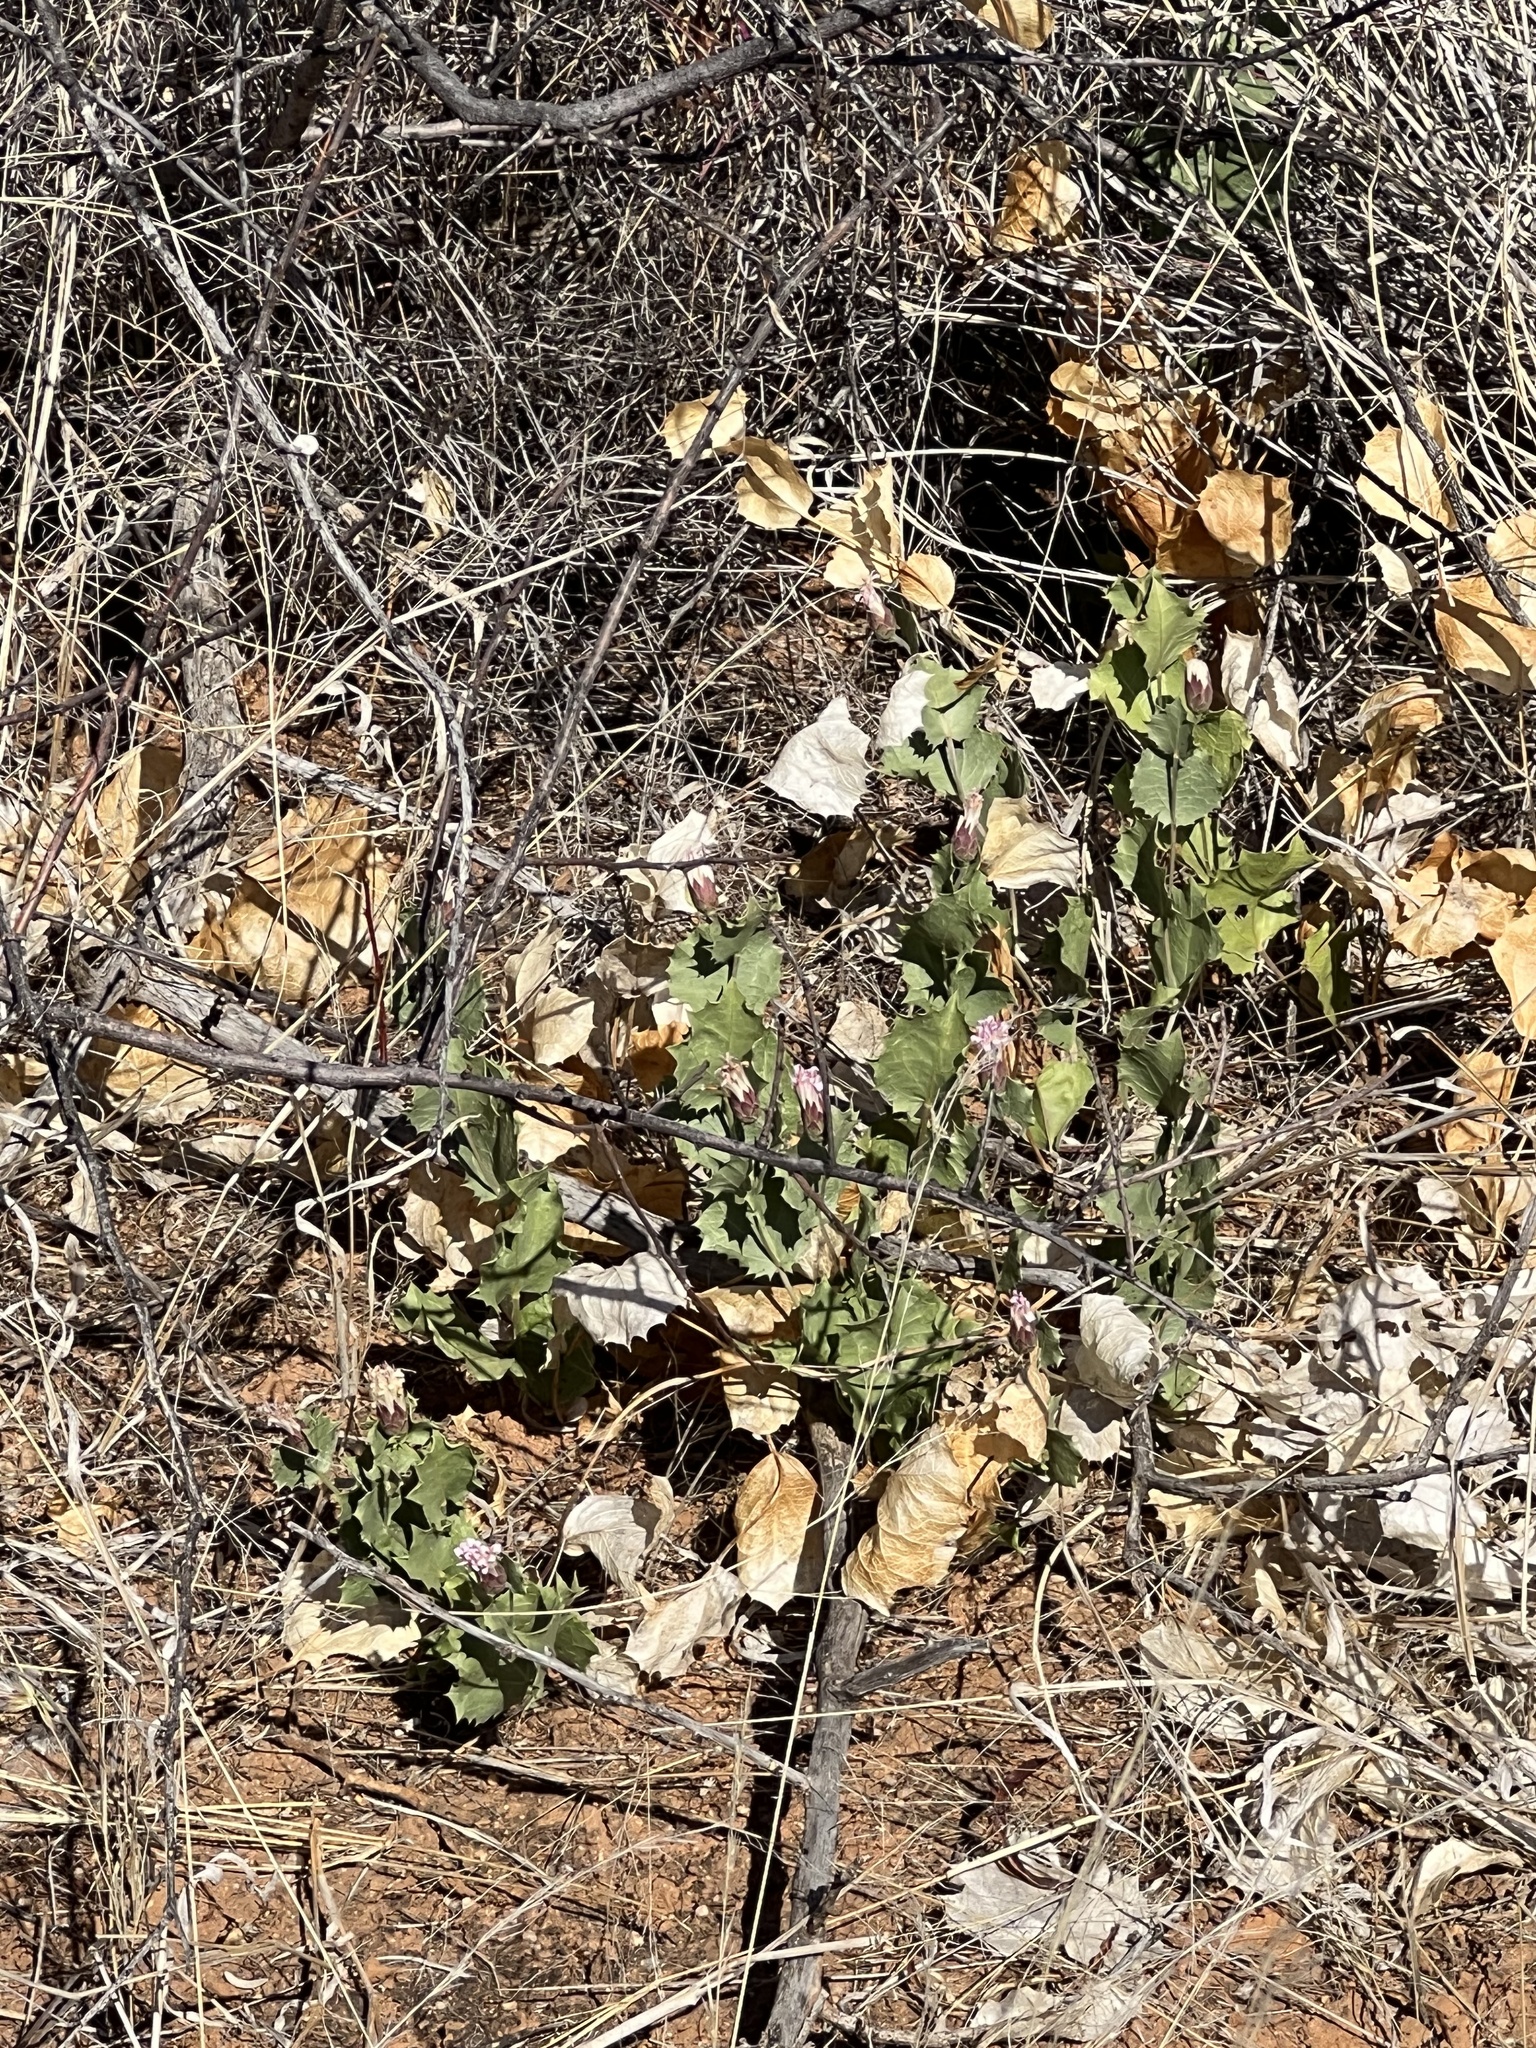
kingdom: Plantae
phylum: Tracheophyta
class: Magnoliopsida
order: Asterales
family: Asteraceae
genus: Acourtia
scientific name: Acourtia nana
